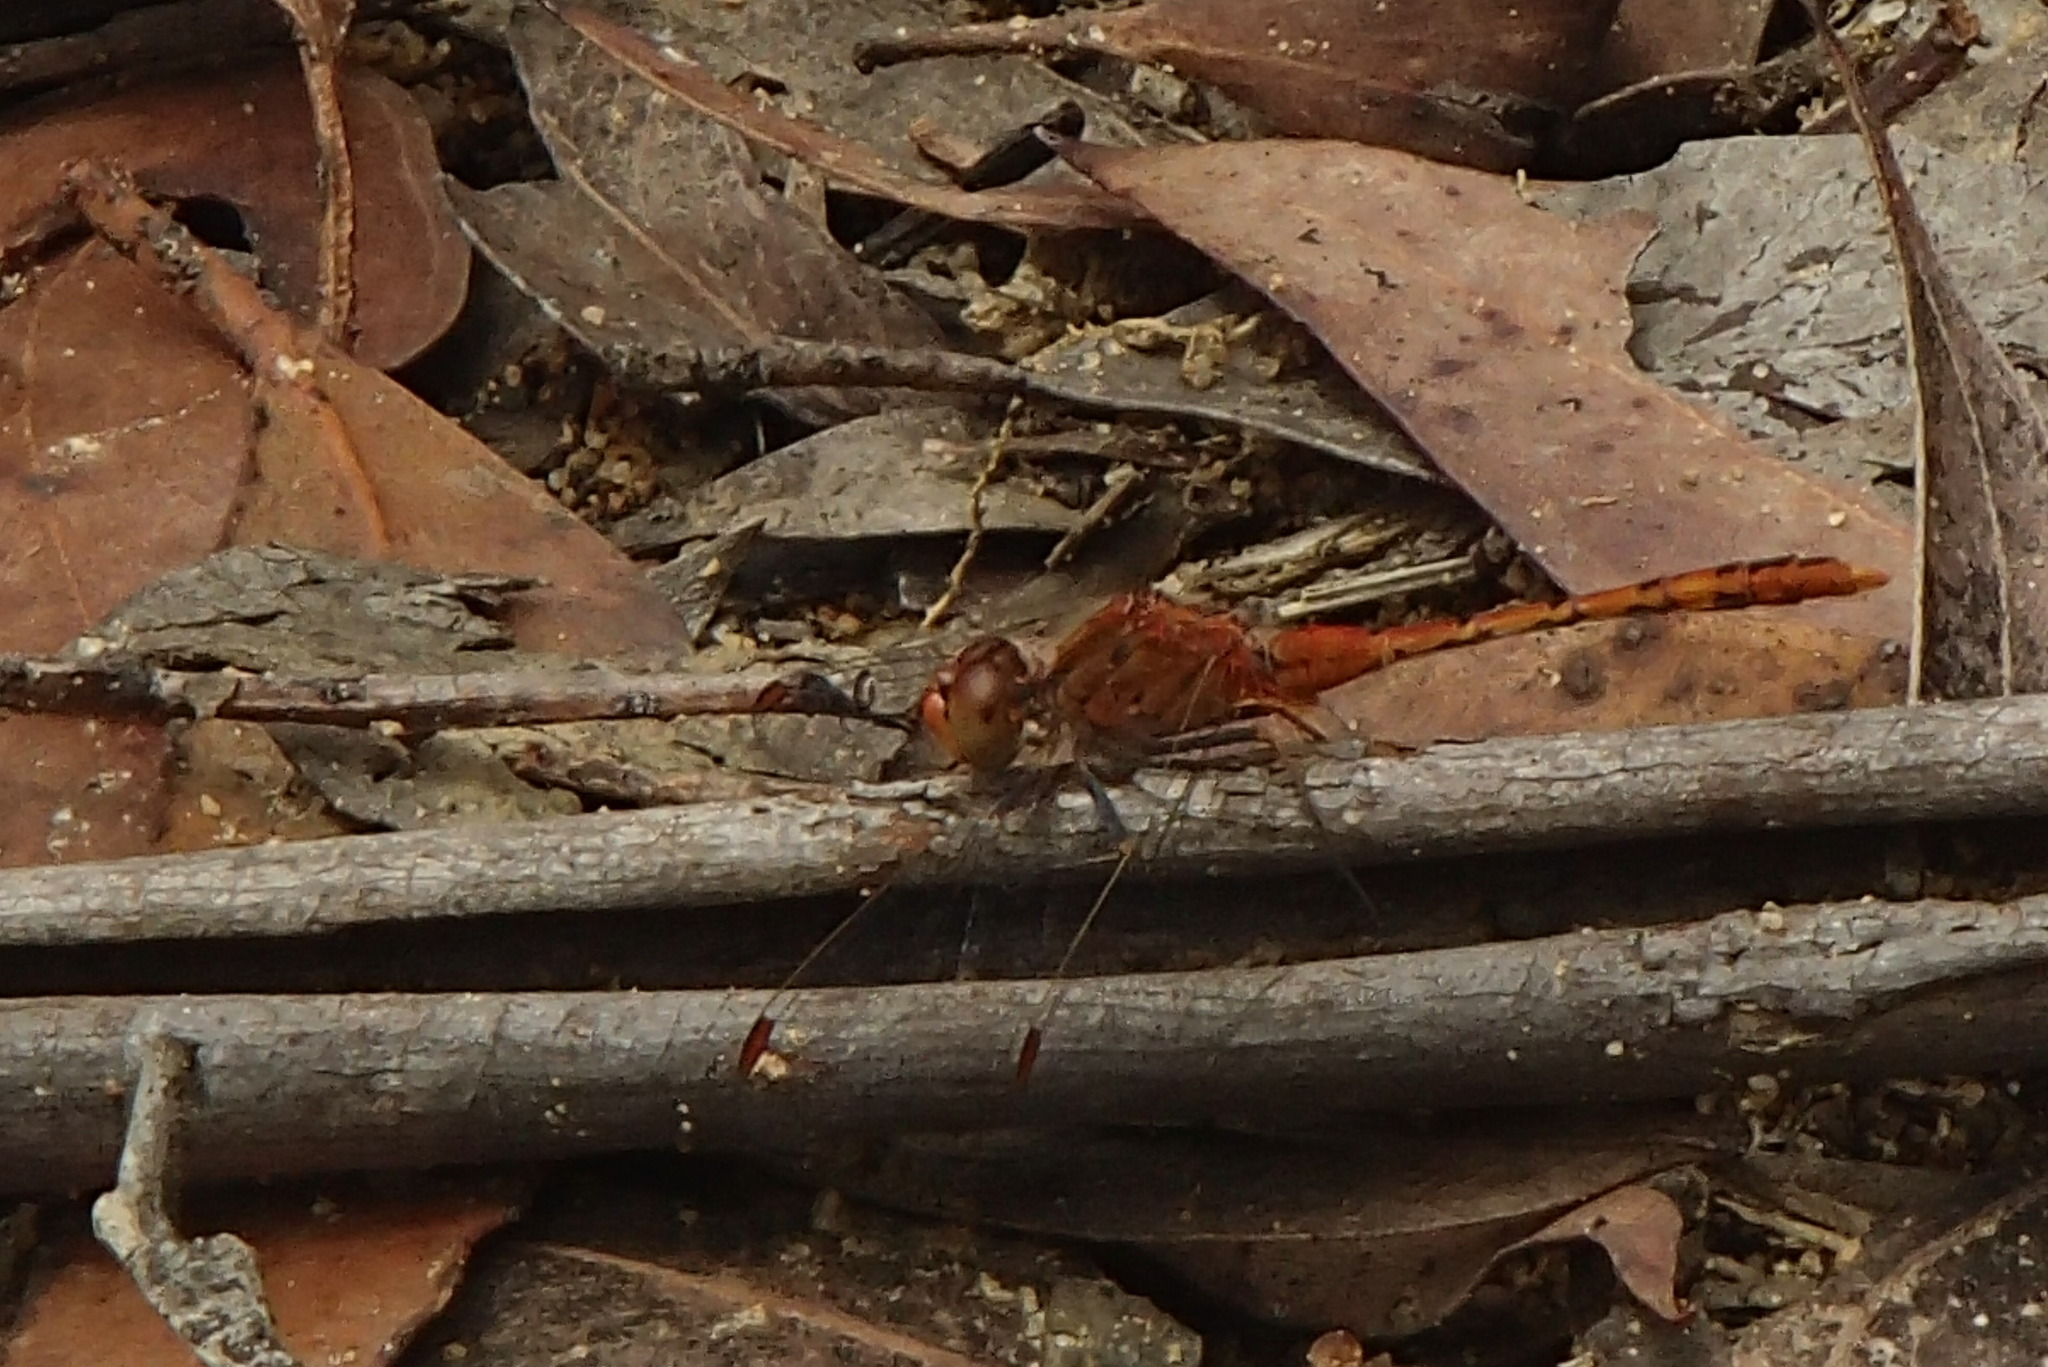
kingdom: Animalia
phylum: Arthropoda
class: Insecta
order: Odonata
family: Libellulidae
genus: Diplacodes
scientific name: Diplacodes bipunctata
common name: Red percher dragonfly
